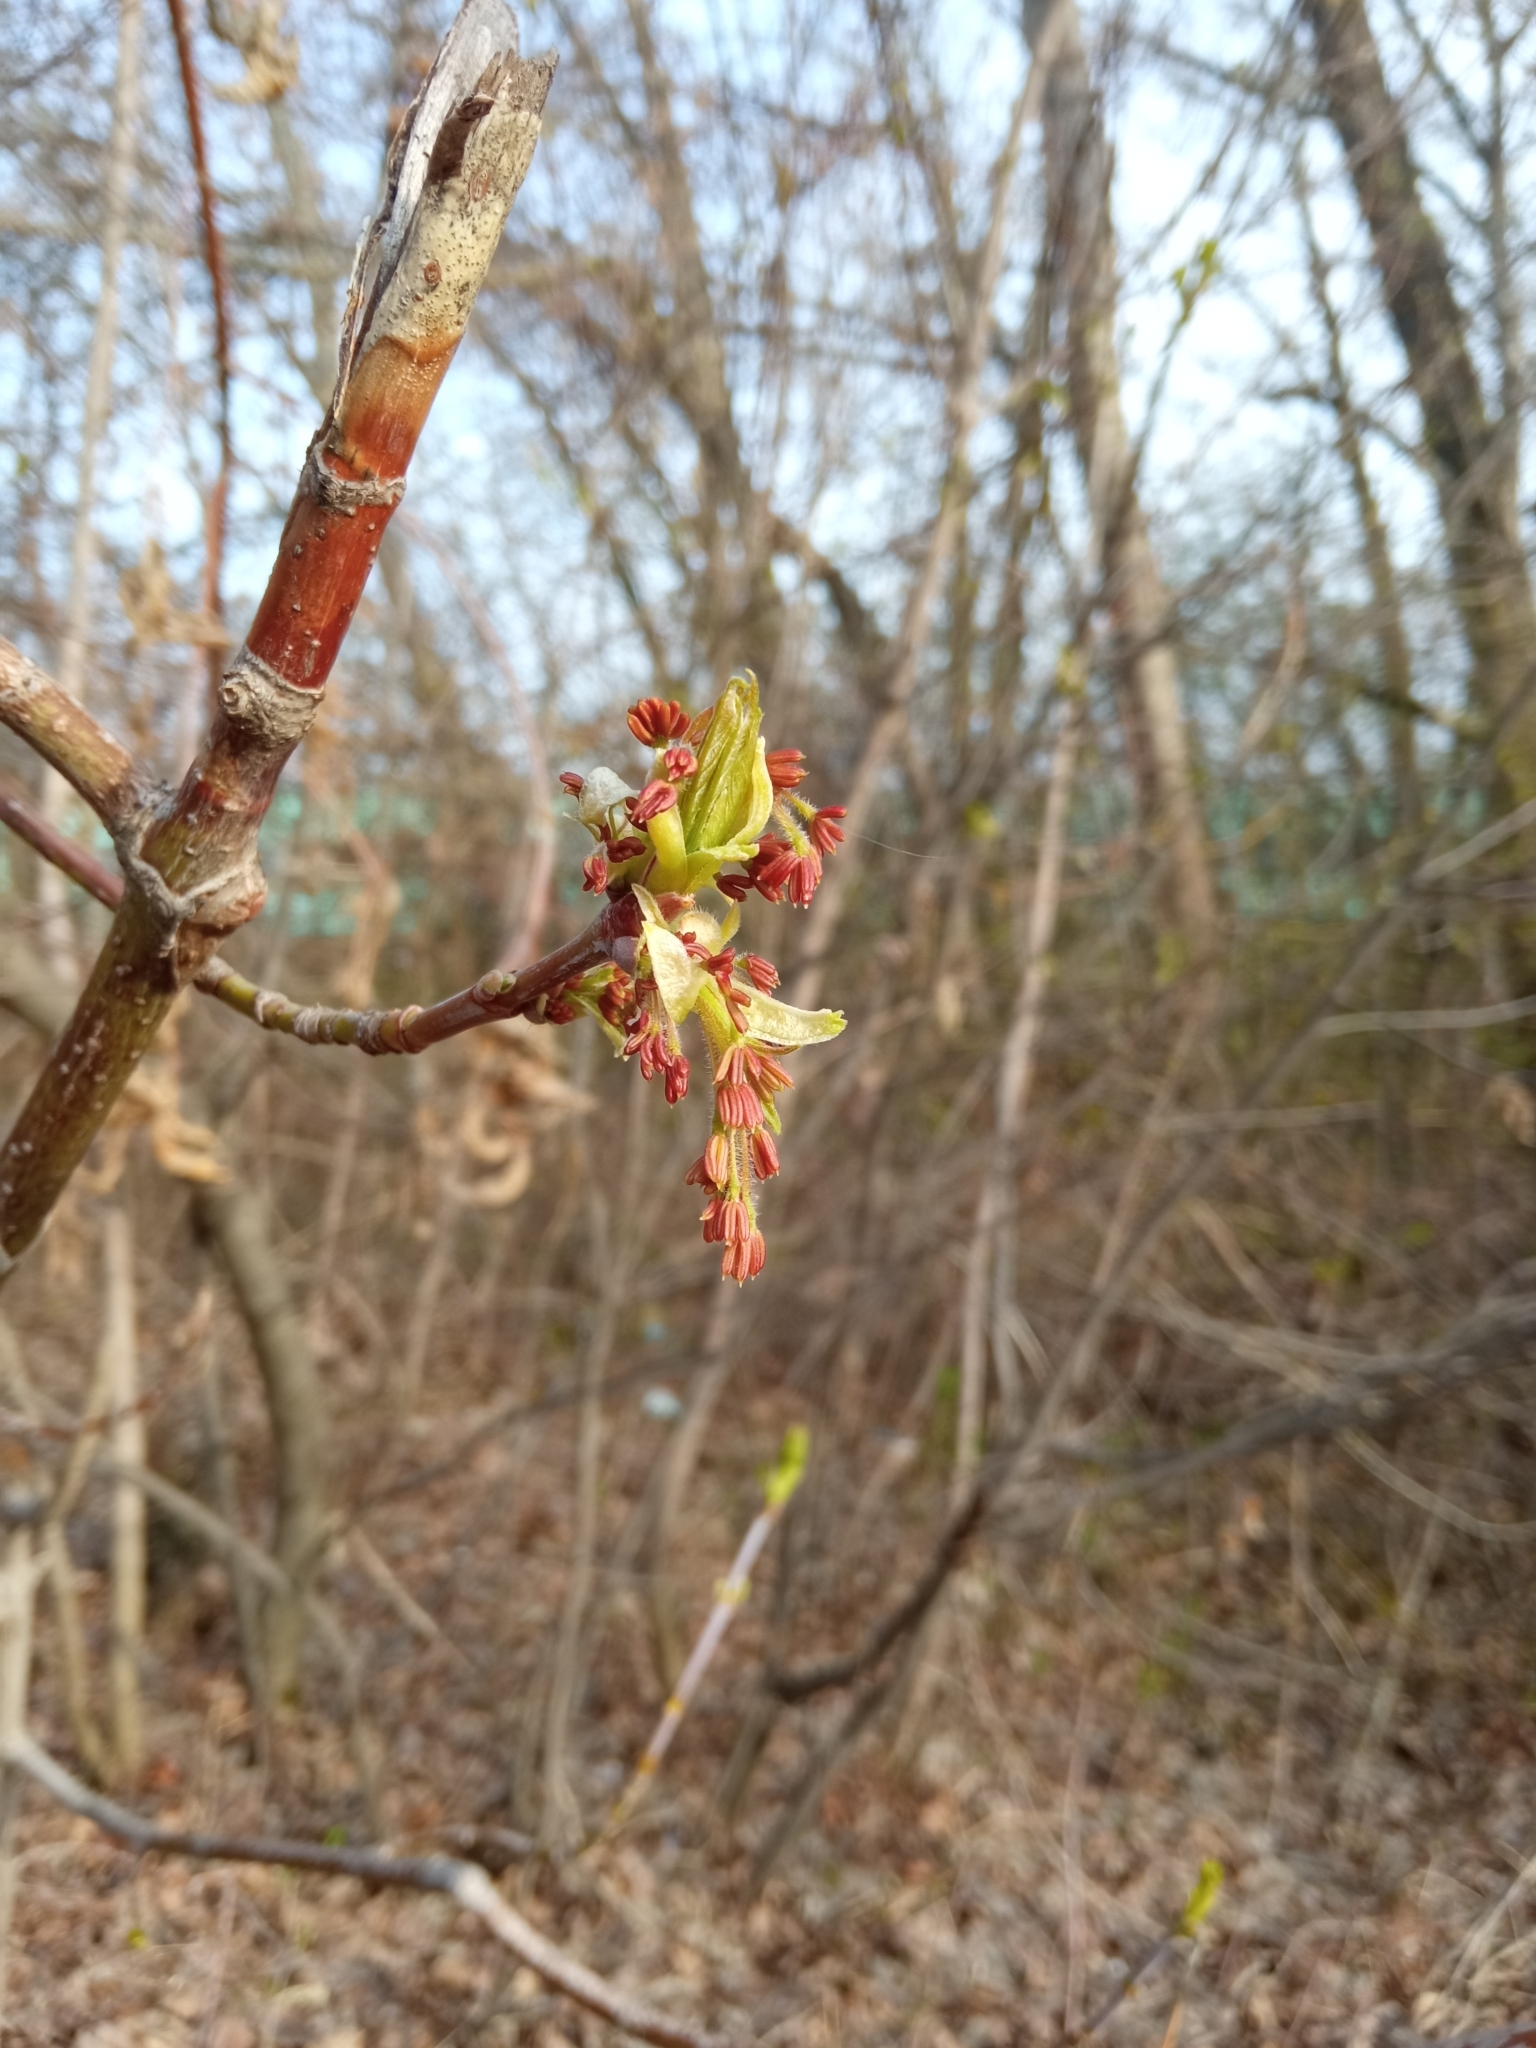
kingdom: Plantae
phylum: Tracheophyta
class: Magnoliopsida
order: Sapindales
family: Sapindaceae
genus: Acer
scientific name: Acer negundo
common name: Ashleaf maple
